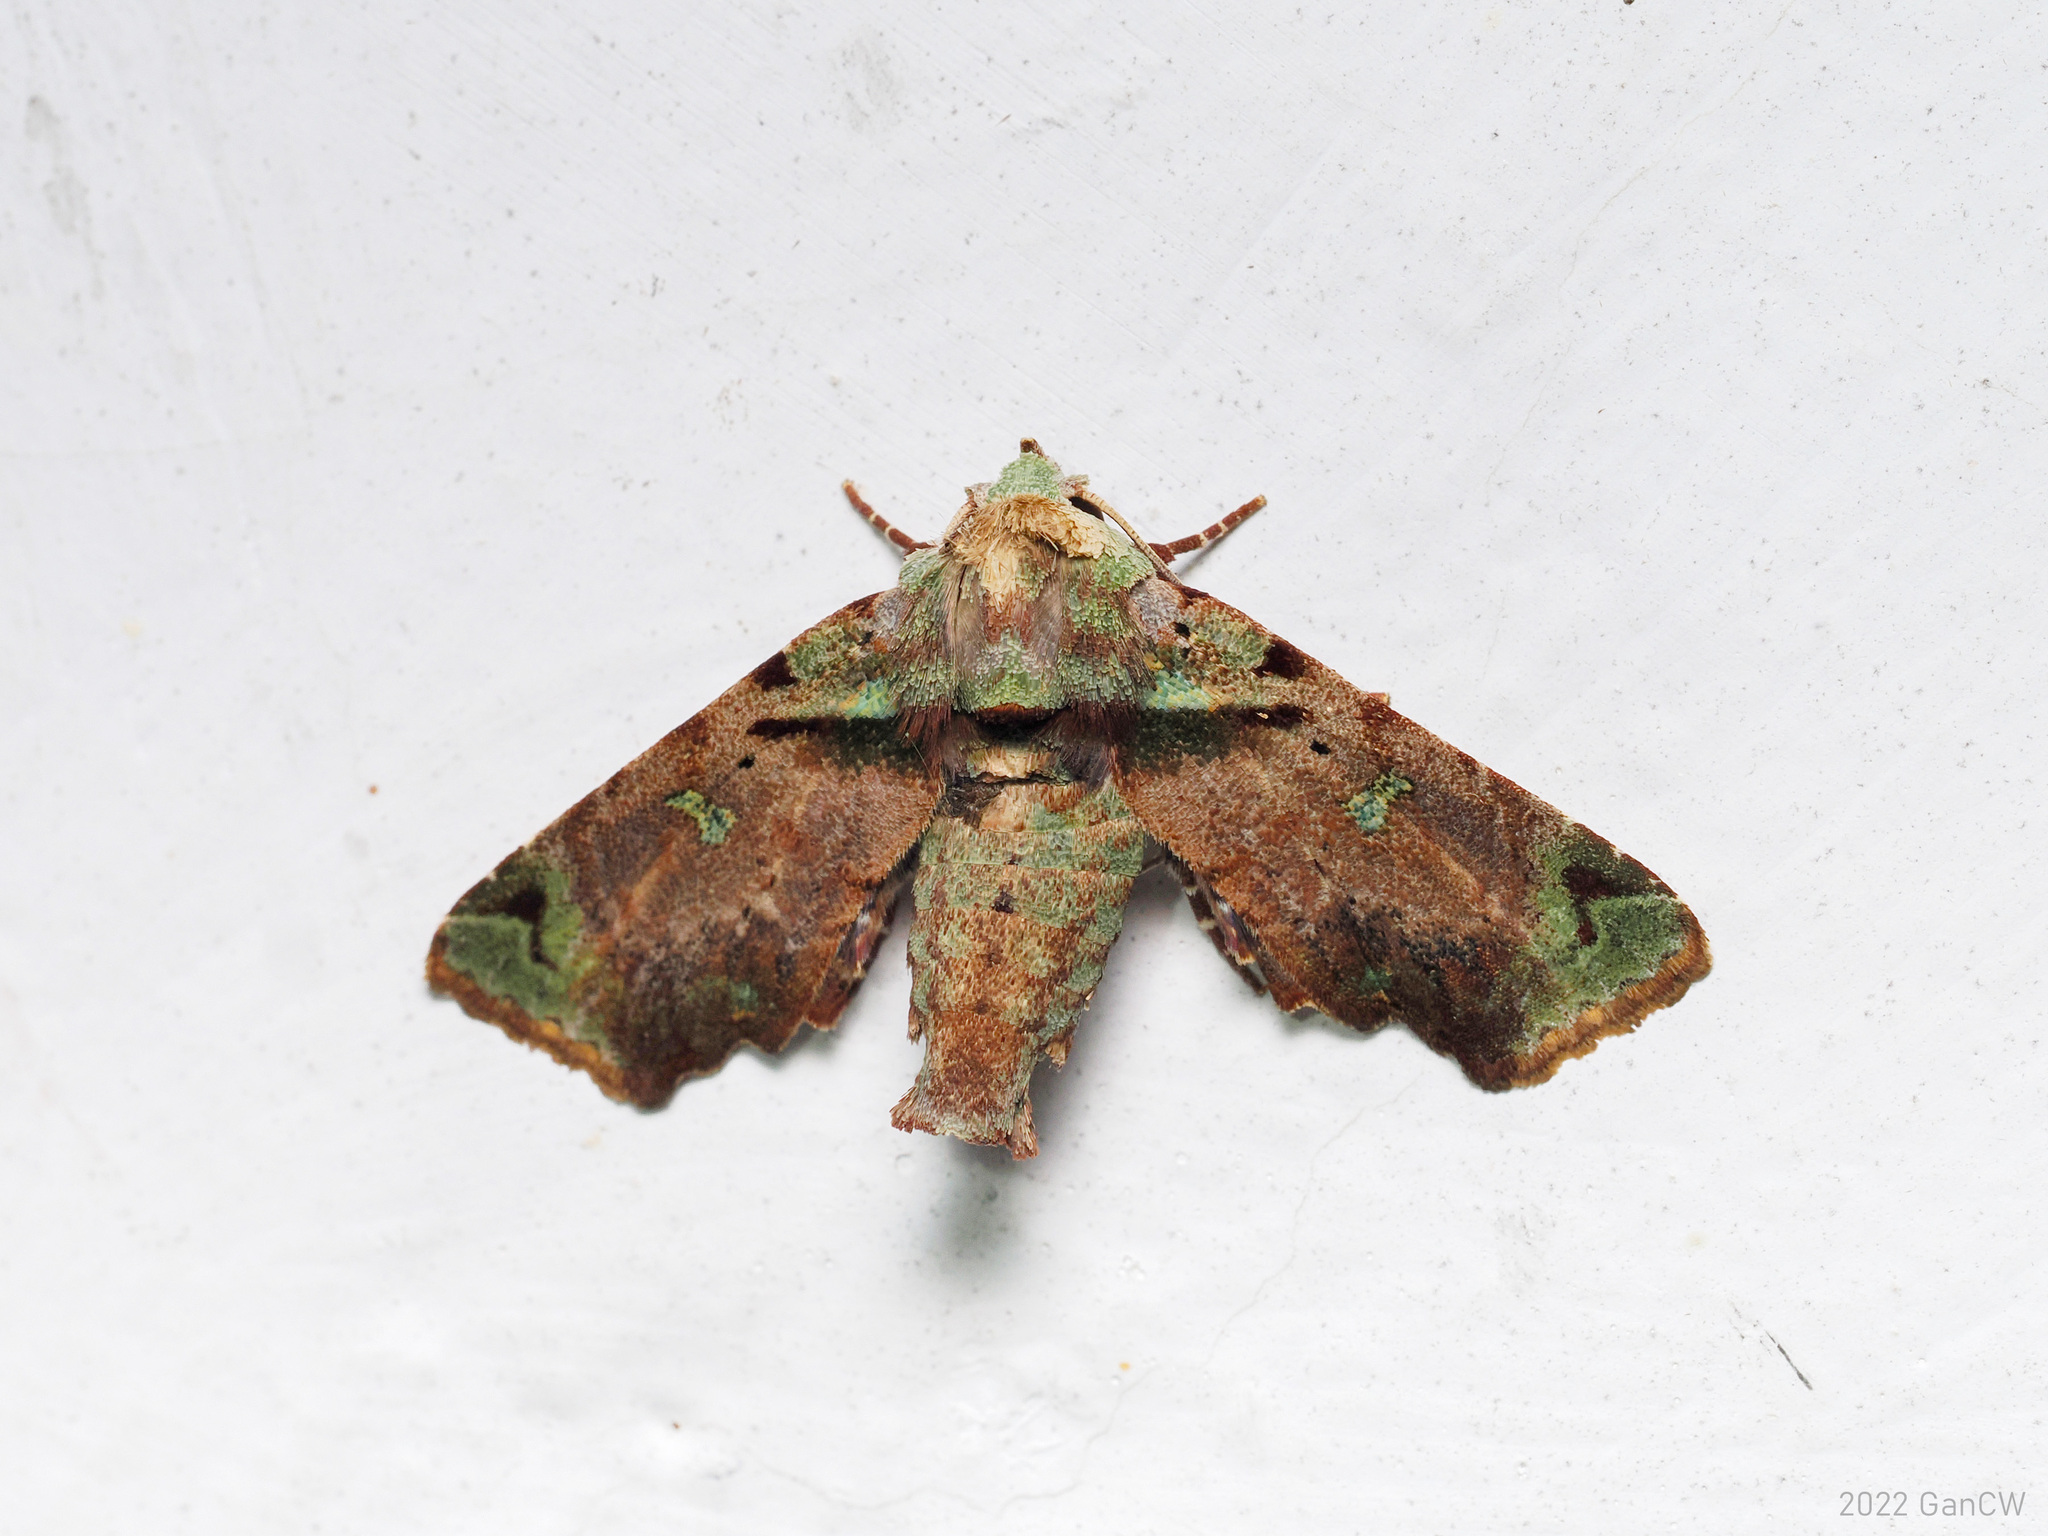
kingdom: Animalia
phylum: Arthropoda
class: Insecta
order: Lepidoptera
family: Euteliidae
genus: Kobestelia
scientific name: Kobestelia rosea
